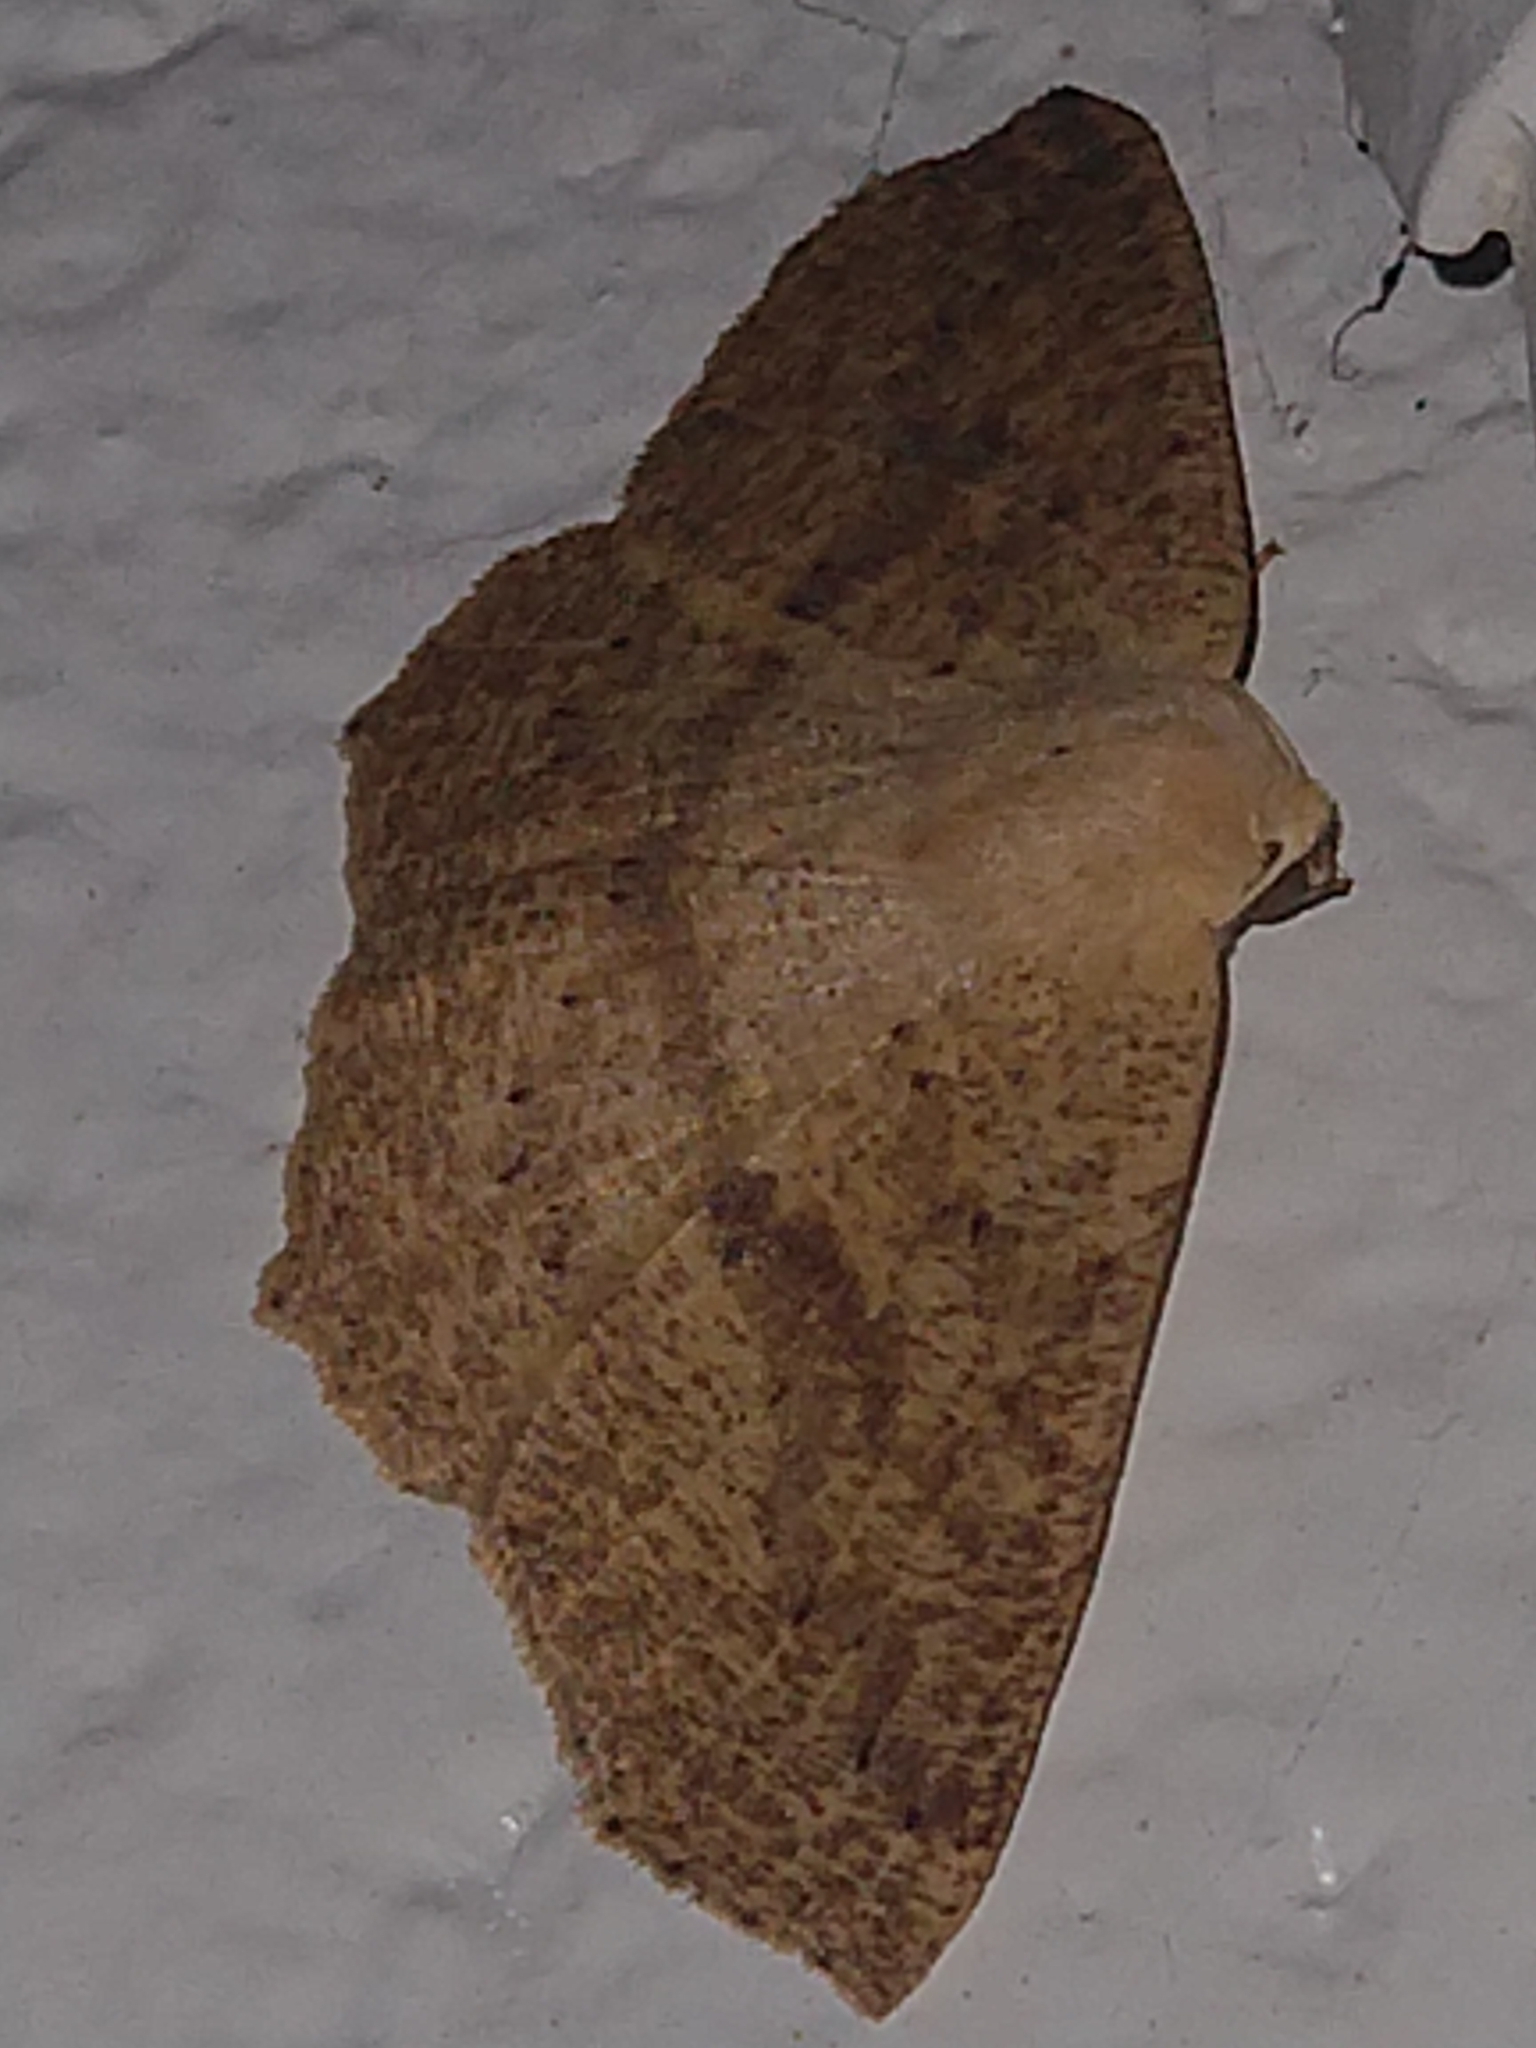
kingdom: Animalia
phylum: Arthropoda
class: Insecta
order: Lepidoptera
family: Geometridae
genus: Sabulodes
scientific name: Sabulodes aegrotata
